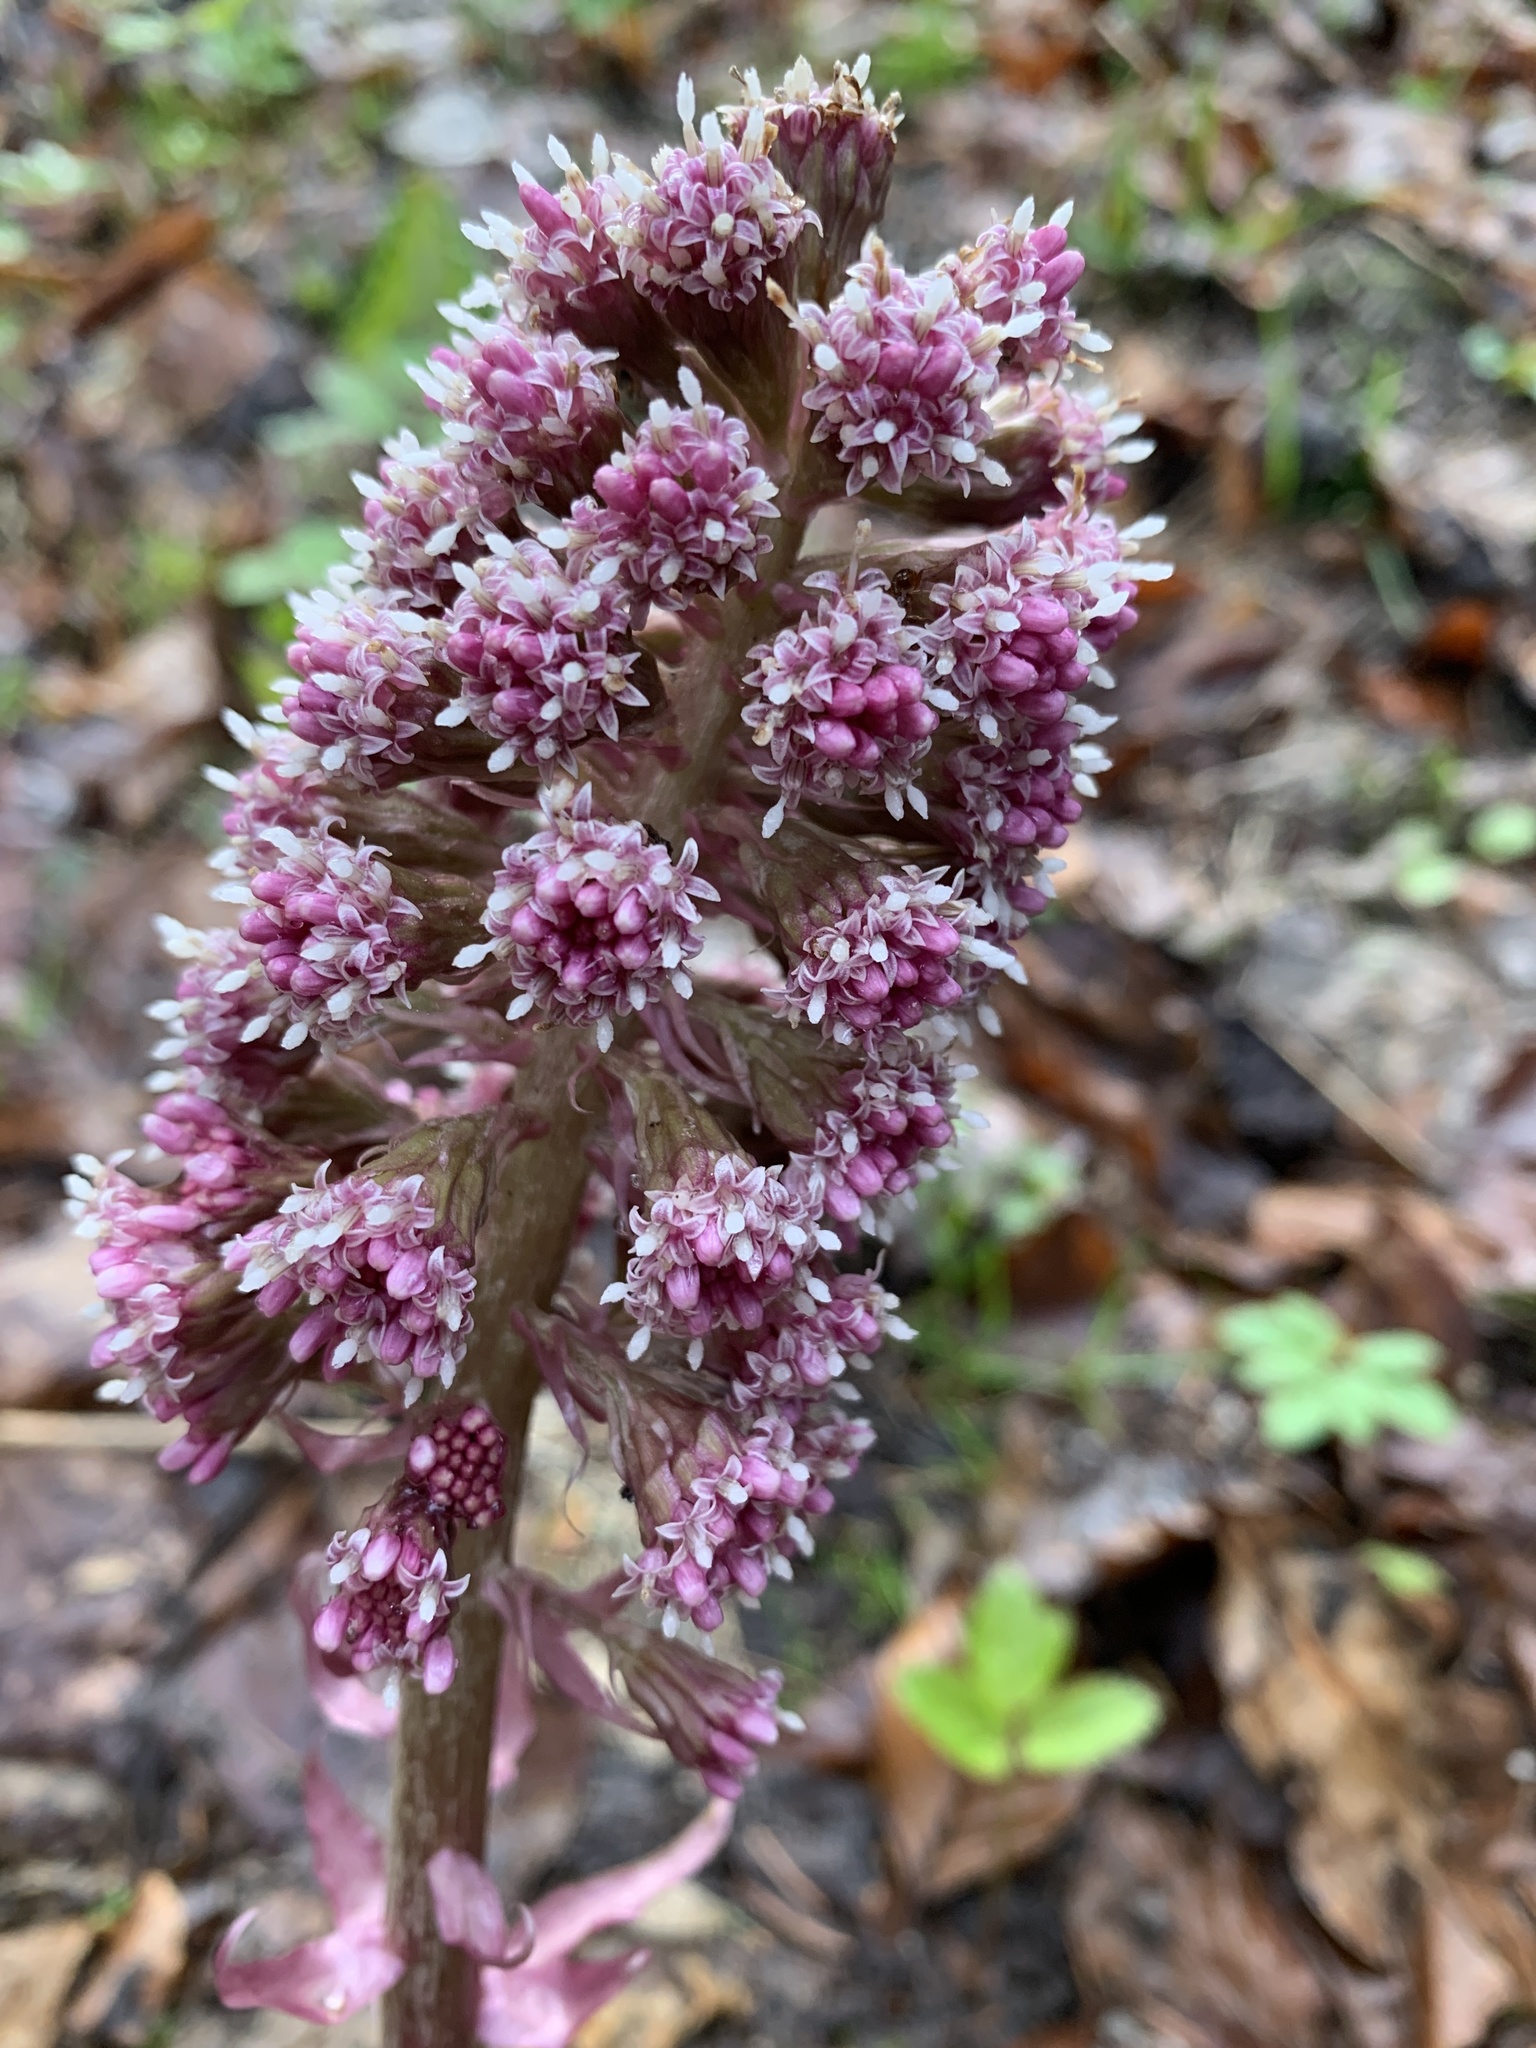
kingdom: Plantae
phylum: Tracheophyta
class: Magnoliopsida
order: Asterales
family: Asteraceae
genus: Petasites
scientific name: Petasites hybridus
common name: Butterbur
